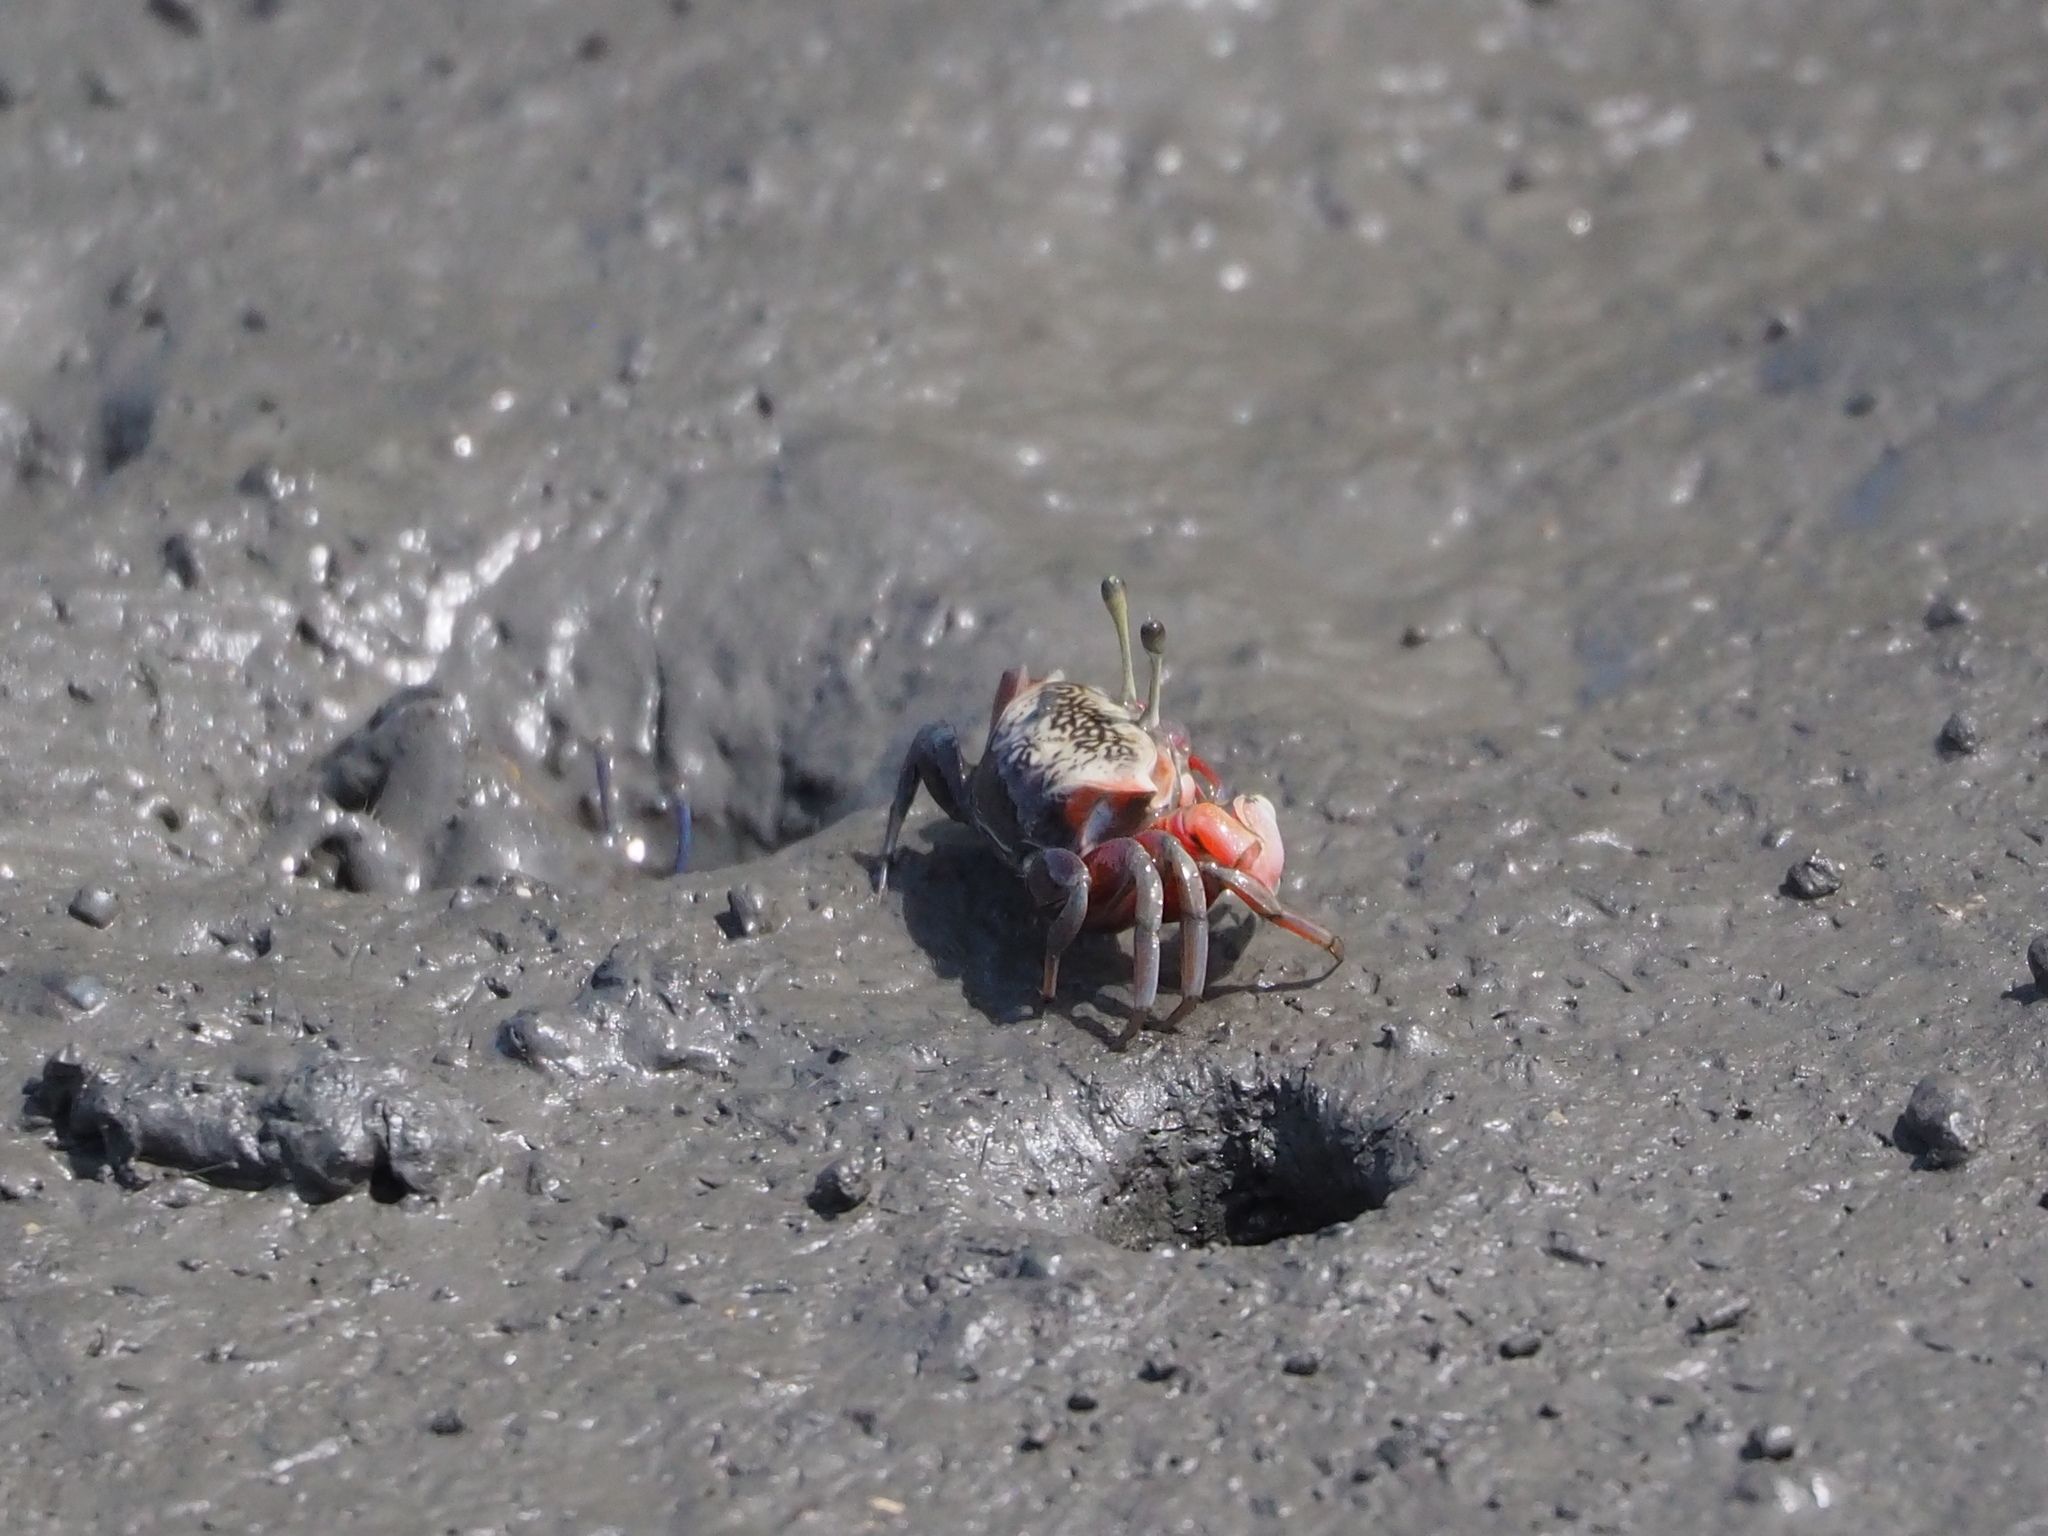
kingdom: Animalia
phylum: Arthropoda
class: Malacostraca
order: Decapoda
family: Ocypodidae
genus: Tubuca
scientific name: Tubuca arcuata
